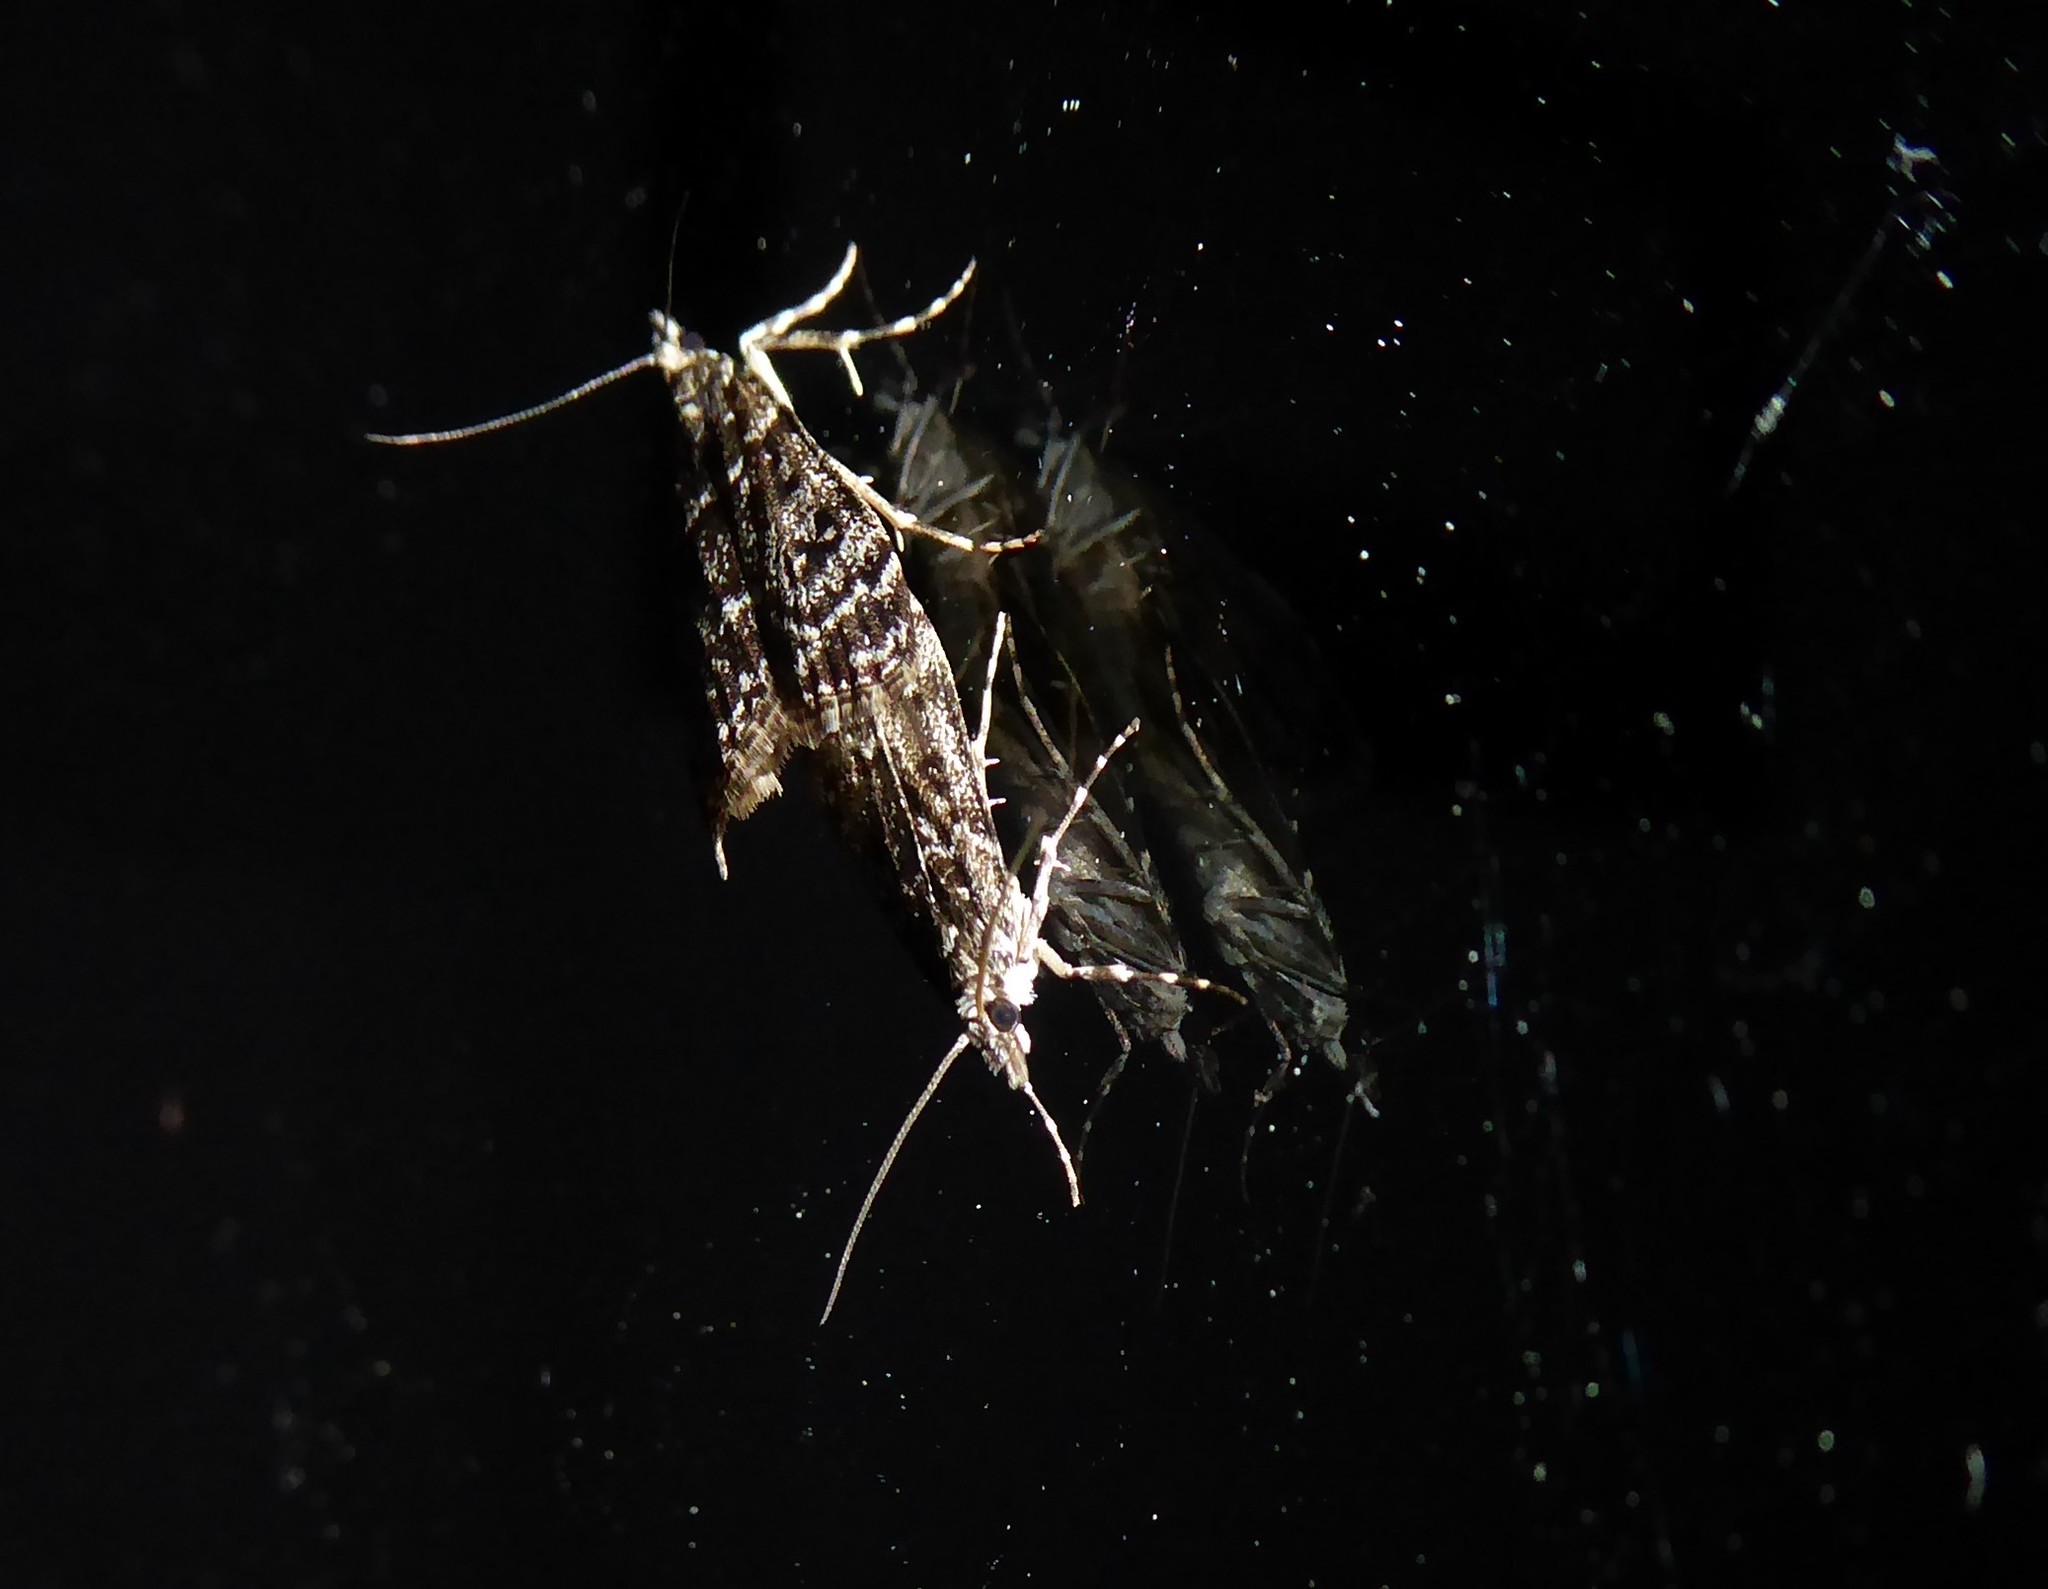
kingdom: Animalia
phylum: Arthropoda
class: Insecta
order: Lepidoptera
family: Crambidae
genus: Eudonia
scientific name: Eudonia philerga
